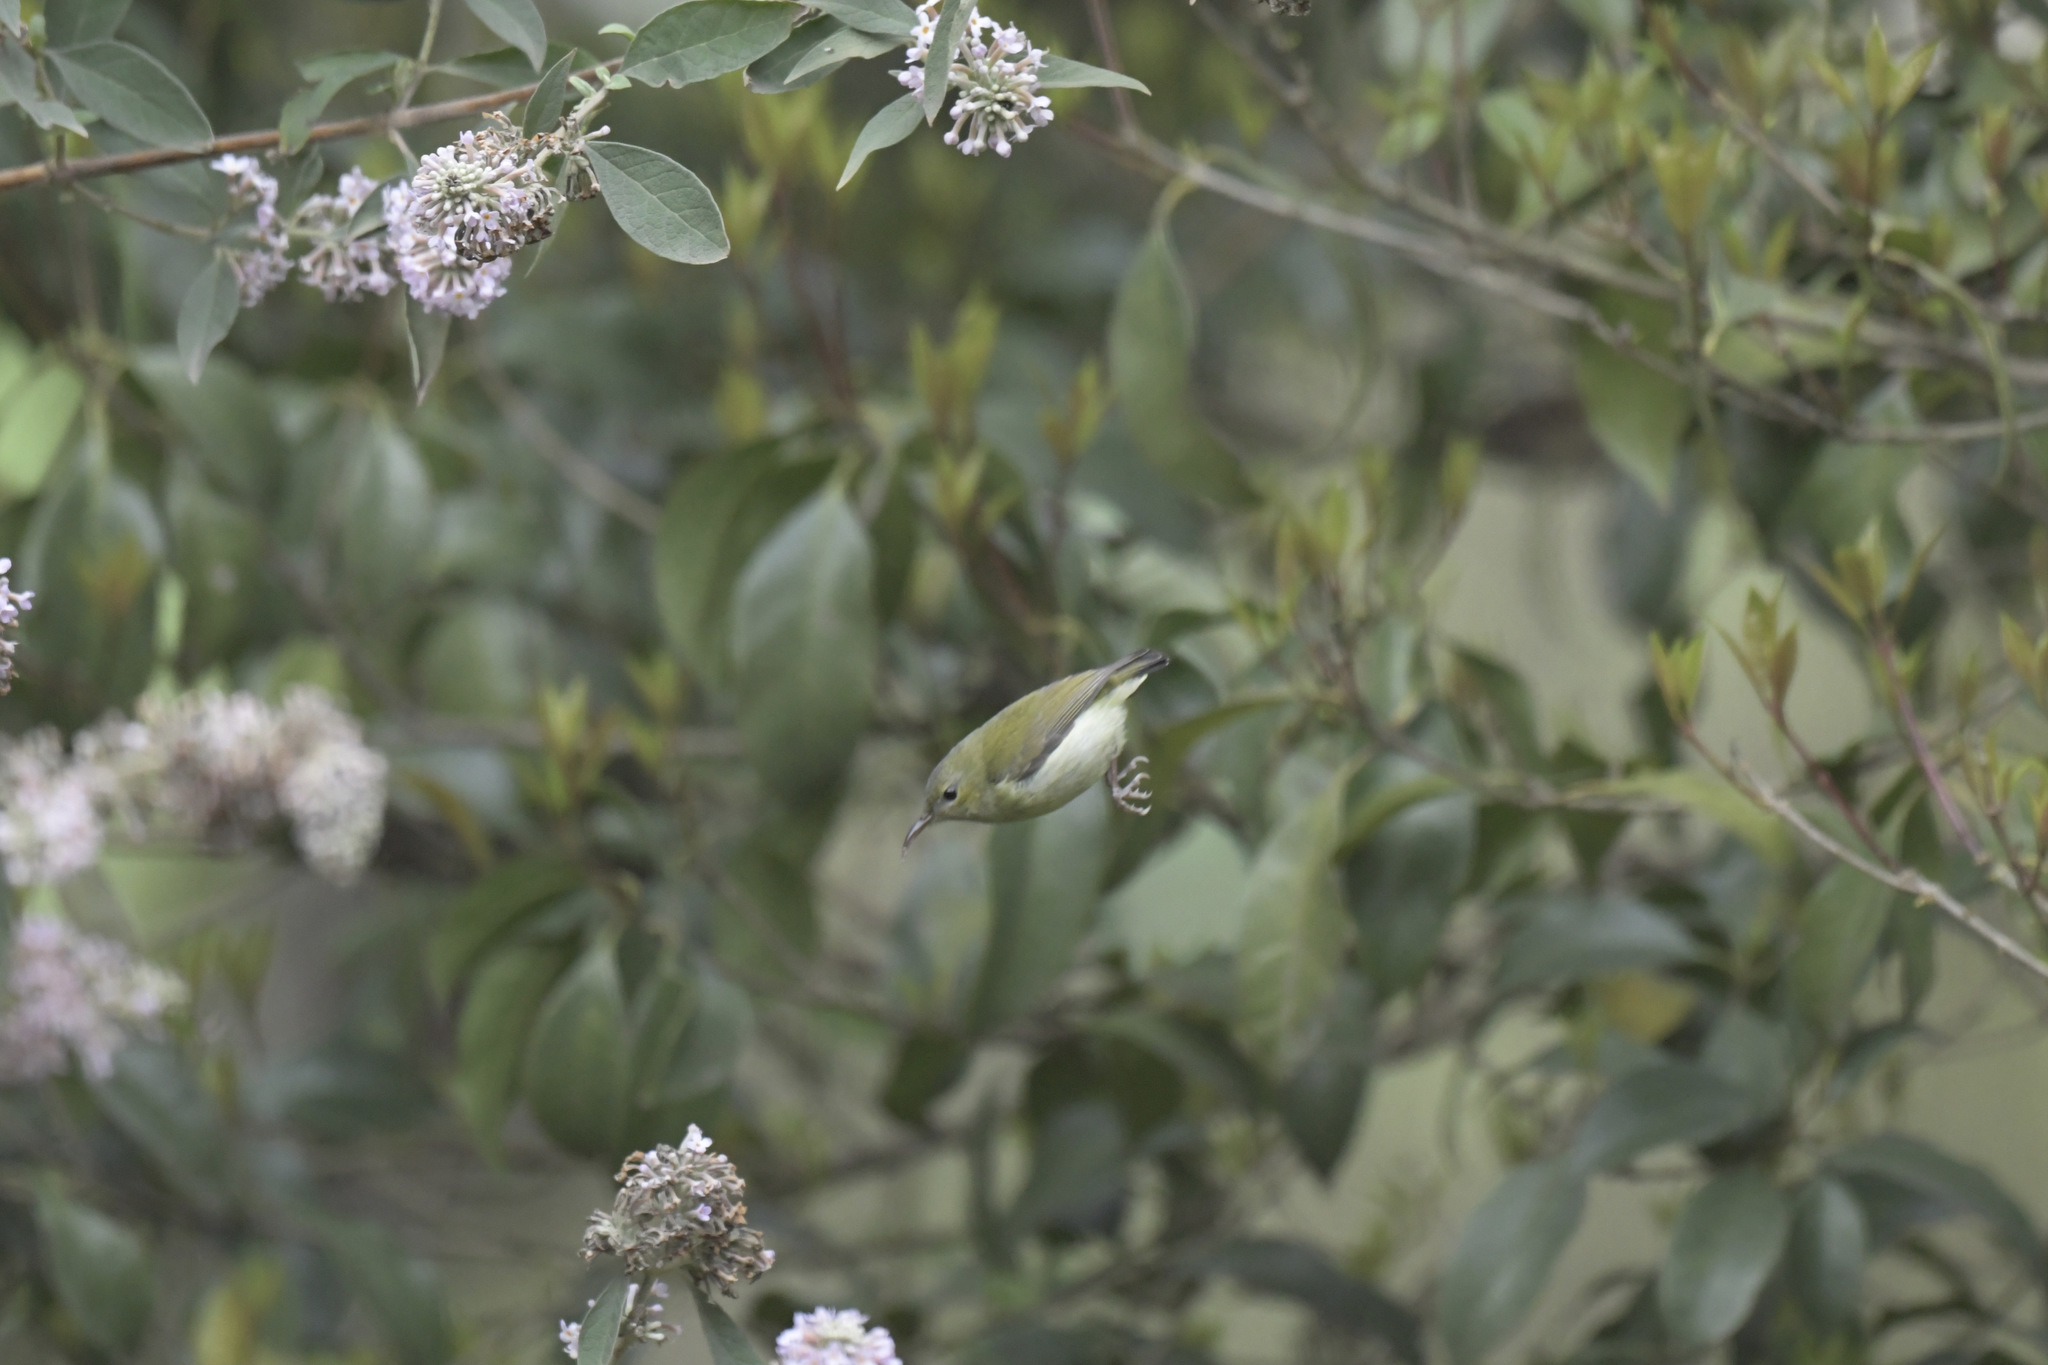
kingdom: Animalia
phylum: Chordata
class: Aves
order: Passeriformes
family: Nectariniidae
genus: Aethopyga
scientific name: Aethopyga christinae
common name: Fork-tailed sunbird
